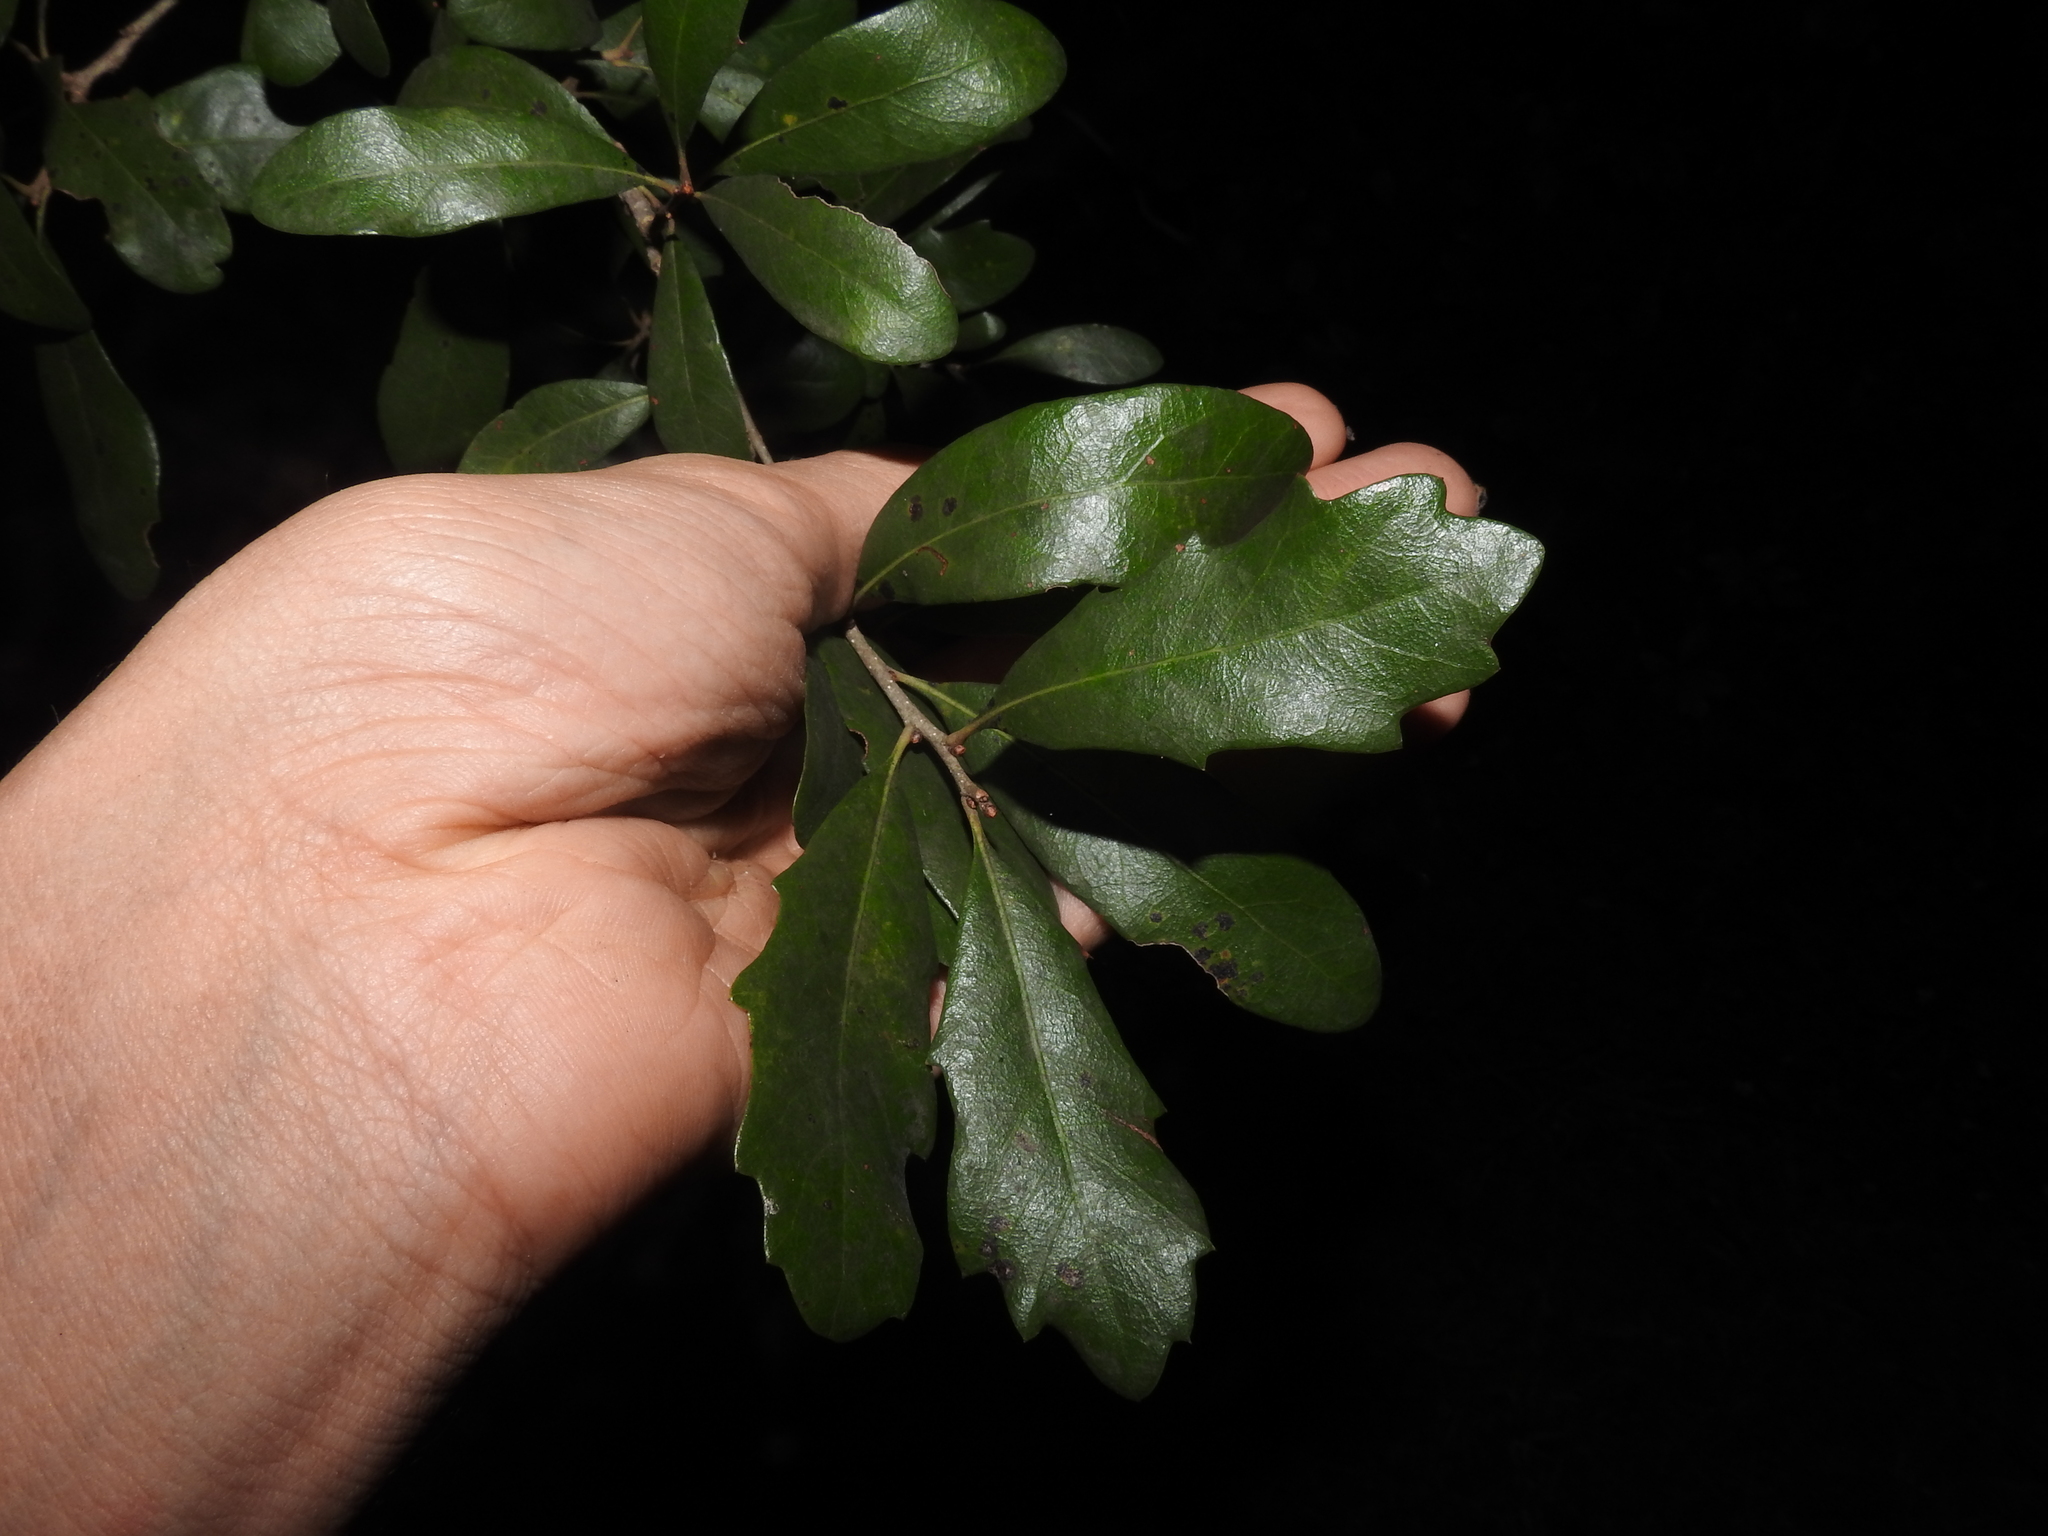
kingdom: Plantae
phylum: Tracheophyta
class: Magnoliopsida
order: Fagales
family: Fagaceae
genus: Quercus
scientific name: Quercus virginiana
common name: Southern live oak
